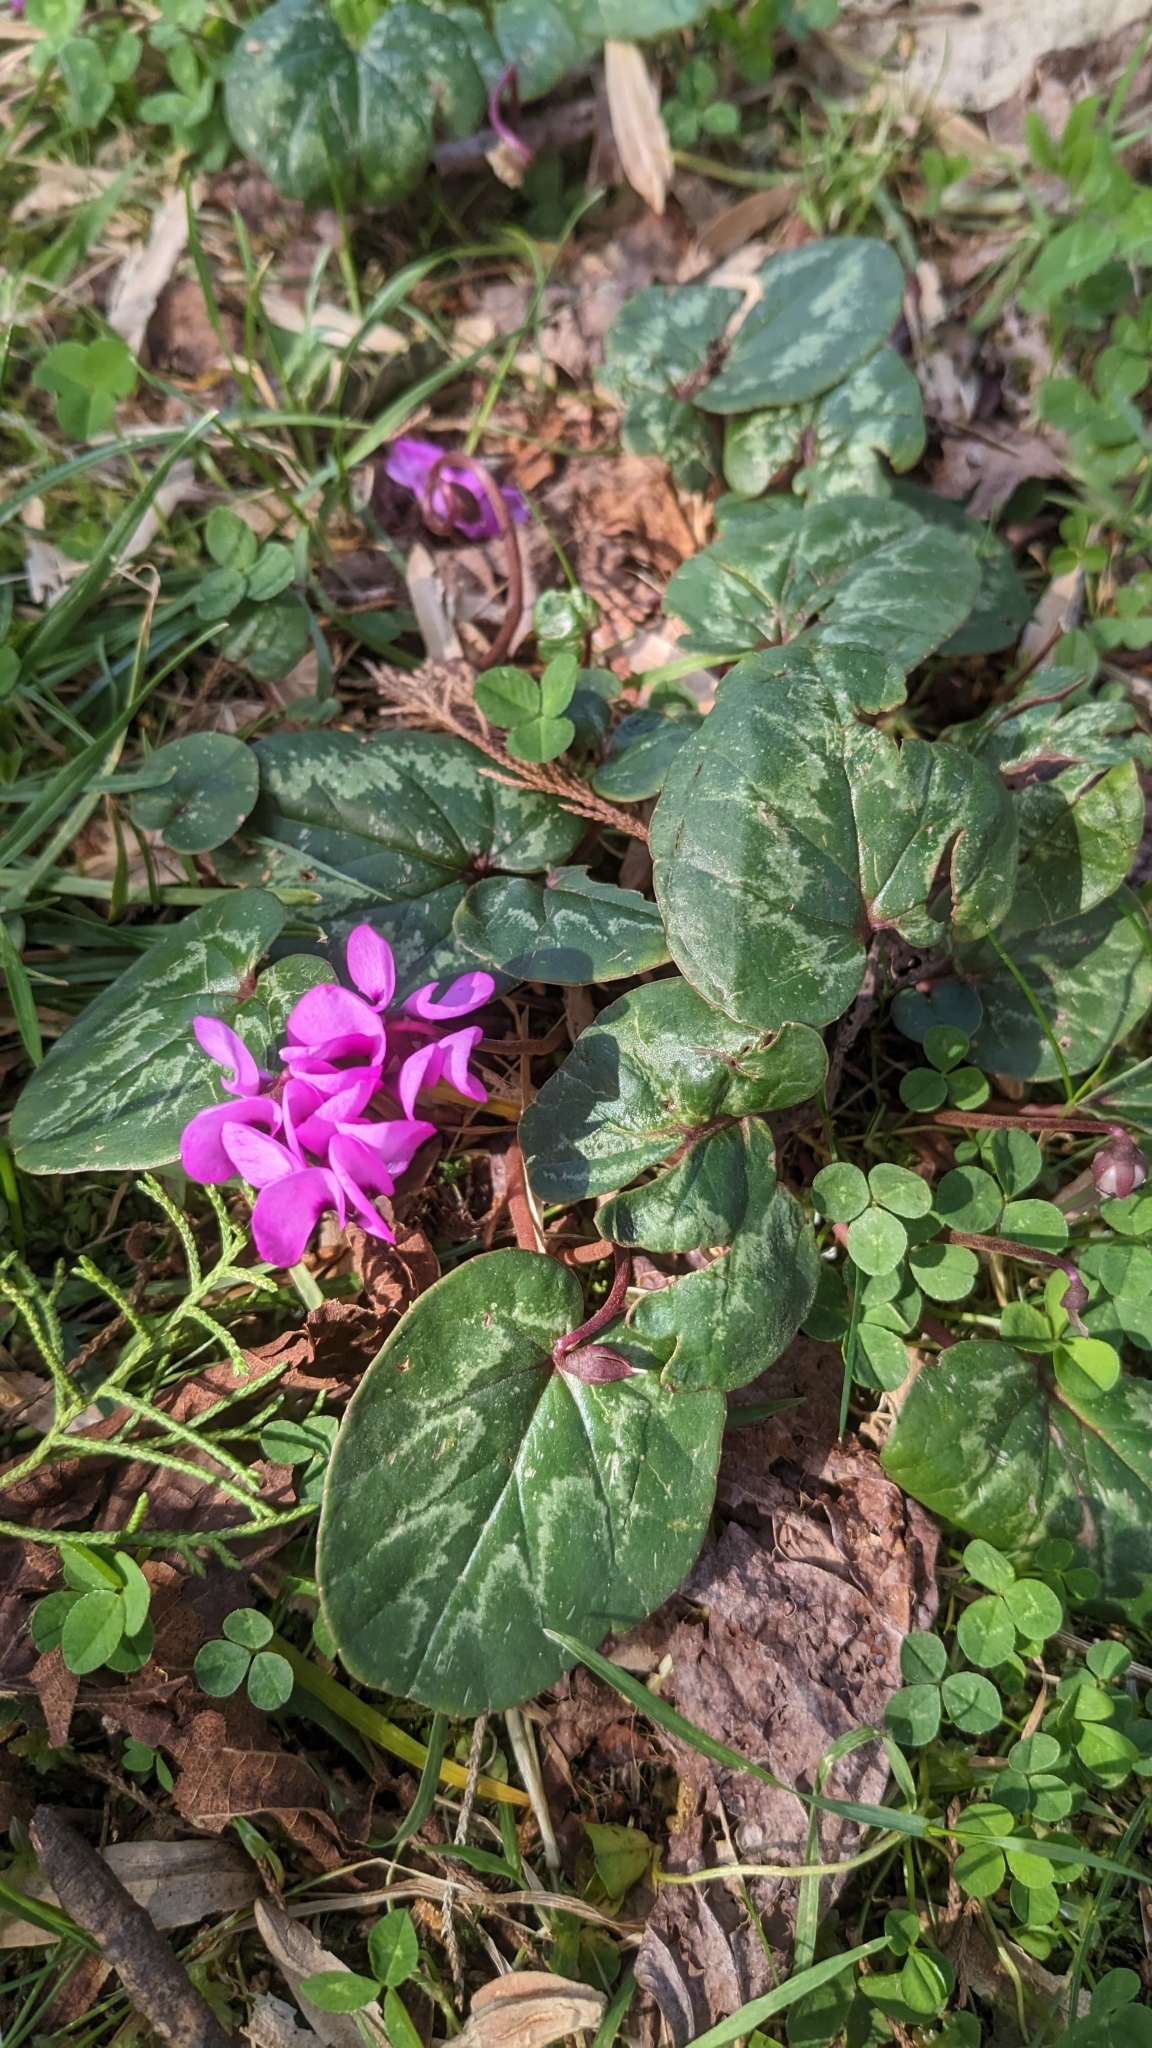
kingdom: Plantae
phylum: Tracheophyta
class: Magnoliopsida
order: Ericales
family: Primulaceae
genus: Cyclamen
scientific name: Cyclamen coum
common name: Eastern sowbread
